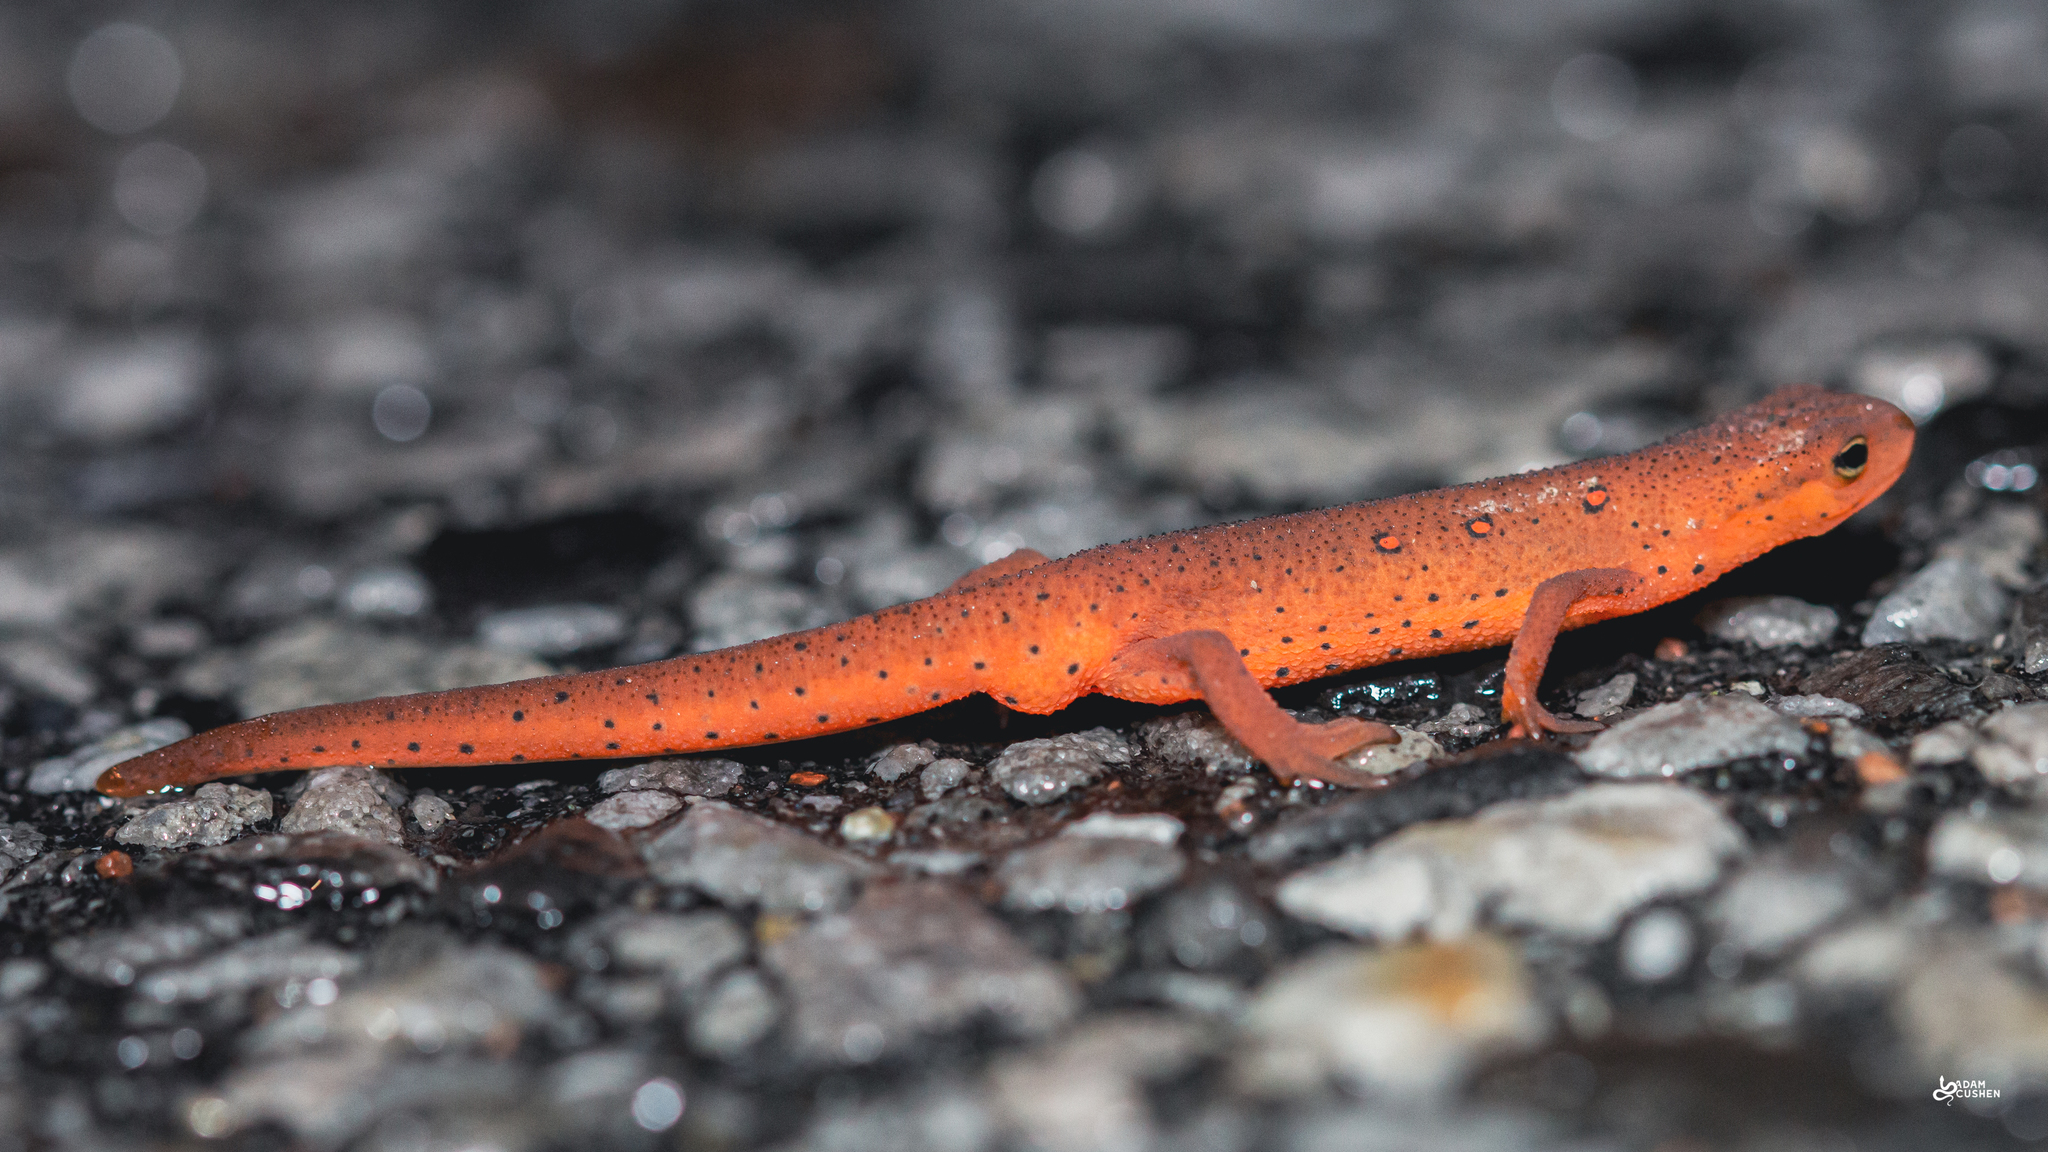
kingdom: Animalia
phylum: Chordata
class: Amphibia
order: Caudata
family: Salamandridae
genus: Notophthalmus
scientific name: Notophthalmus viridescens
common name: Eastern newt
